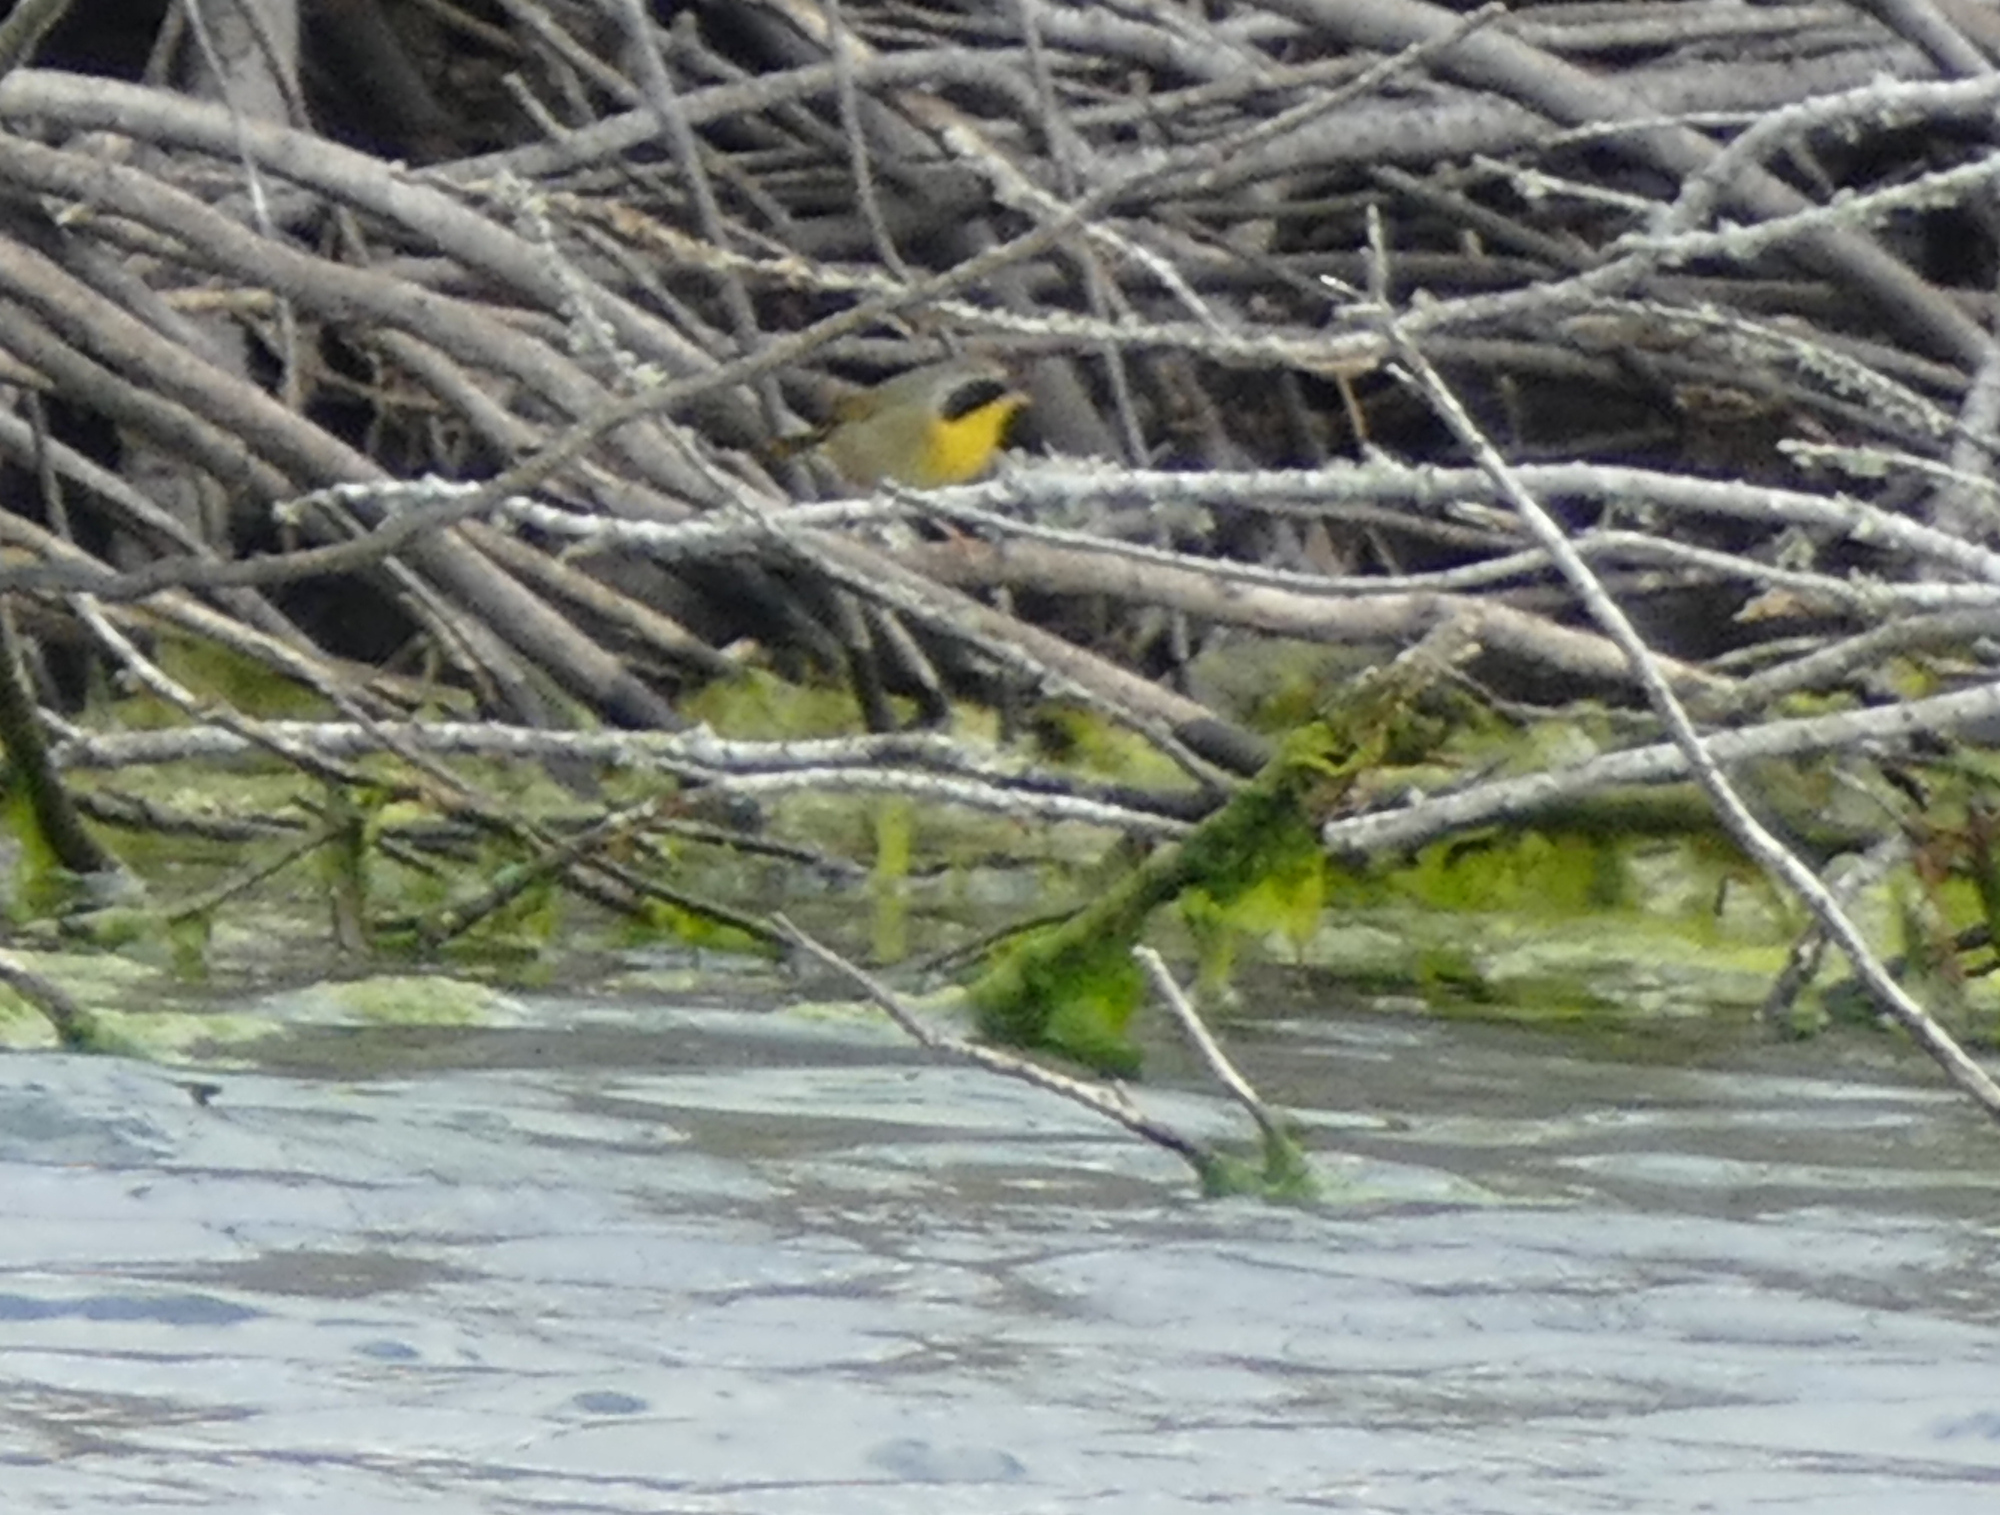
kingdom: Animalia
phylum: Chordata
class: Aves
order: Passeriformes
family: Parulidae
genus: Geothlypis
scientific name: Geothlypis trichas
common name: Common yellowthroat
